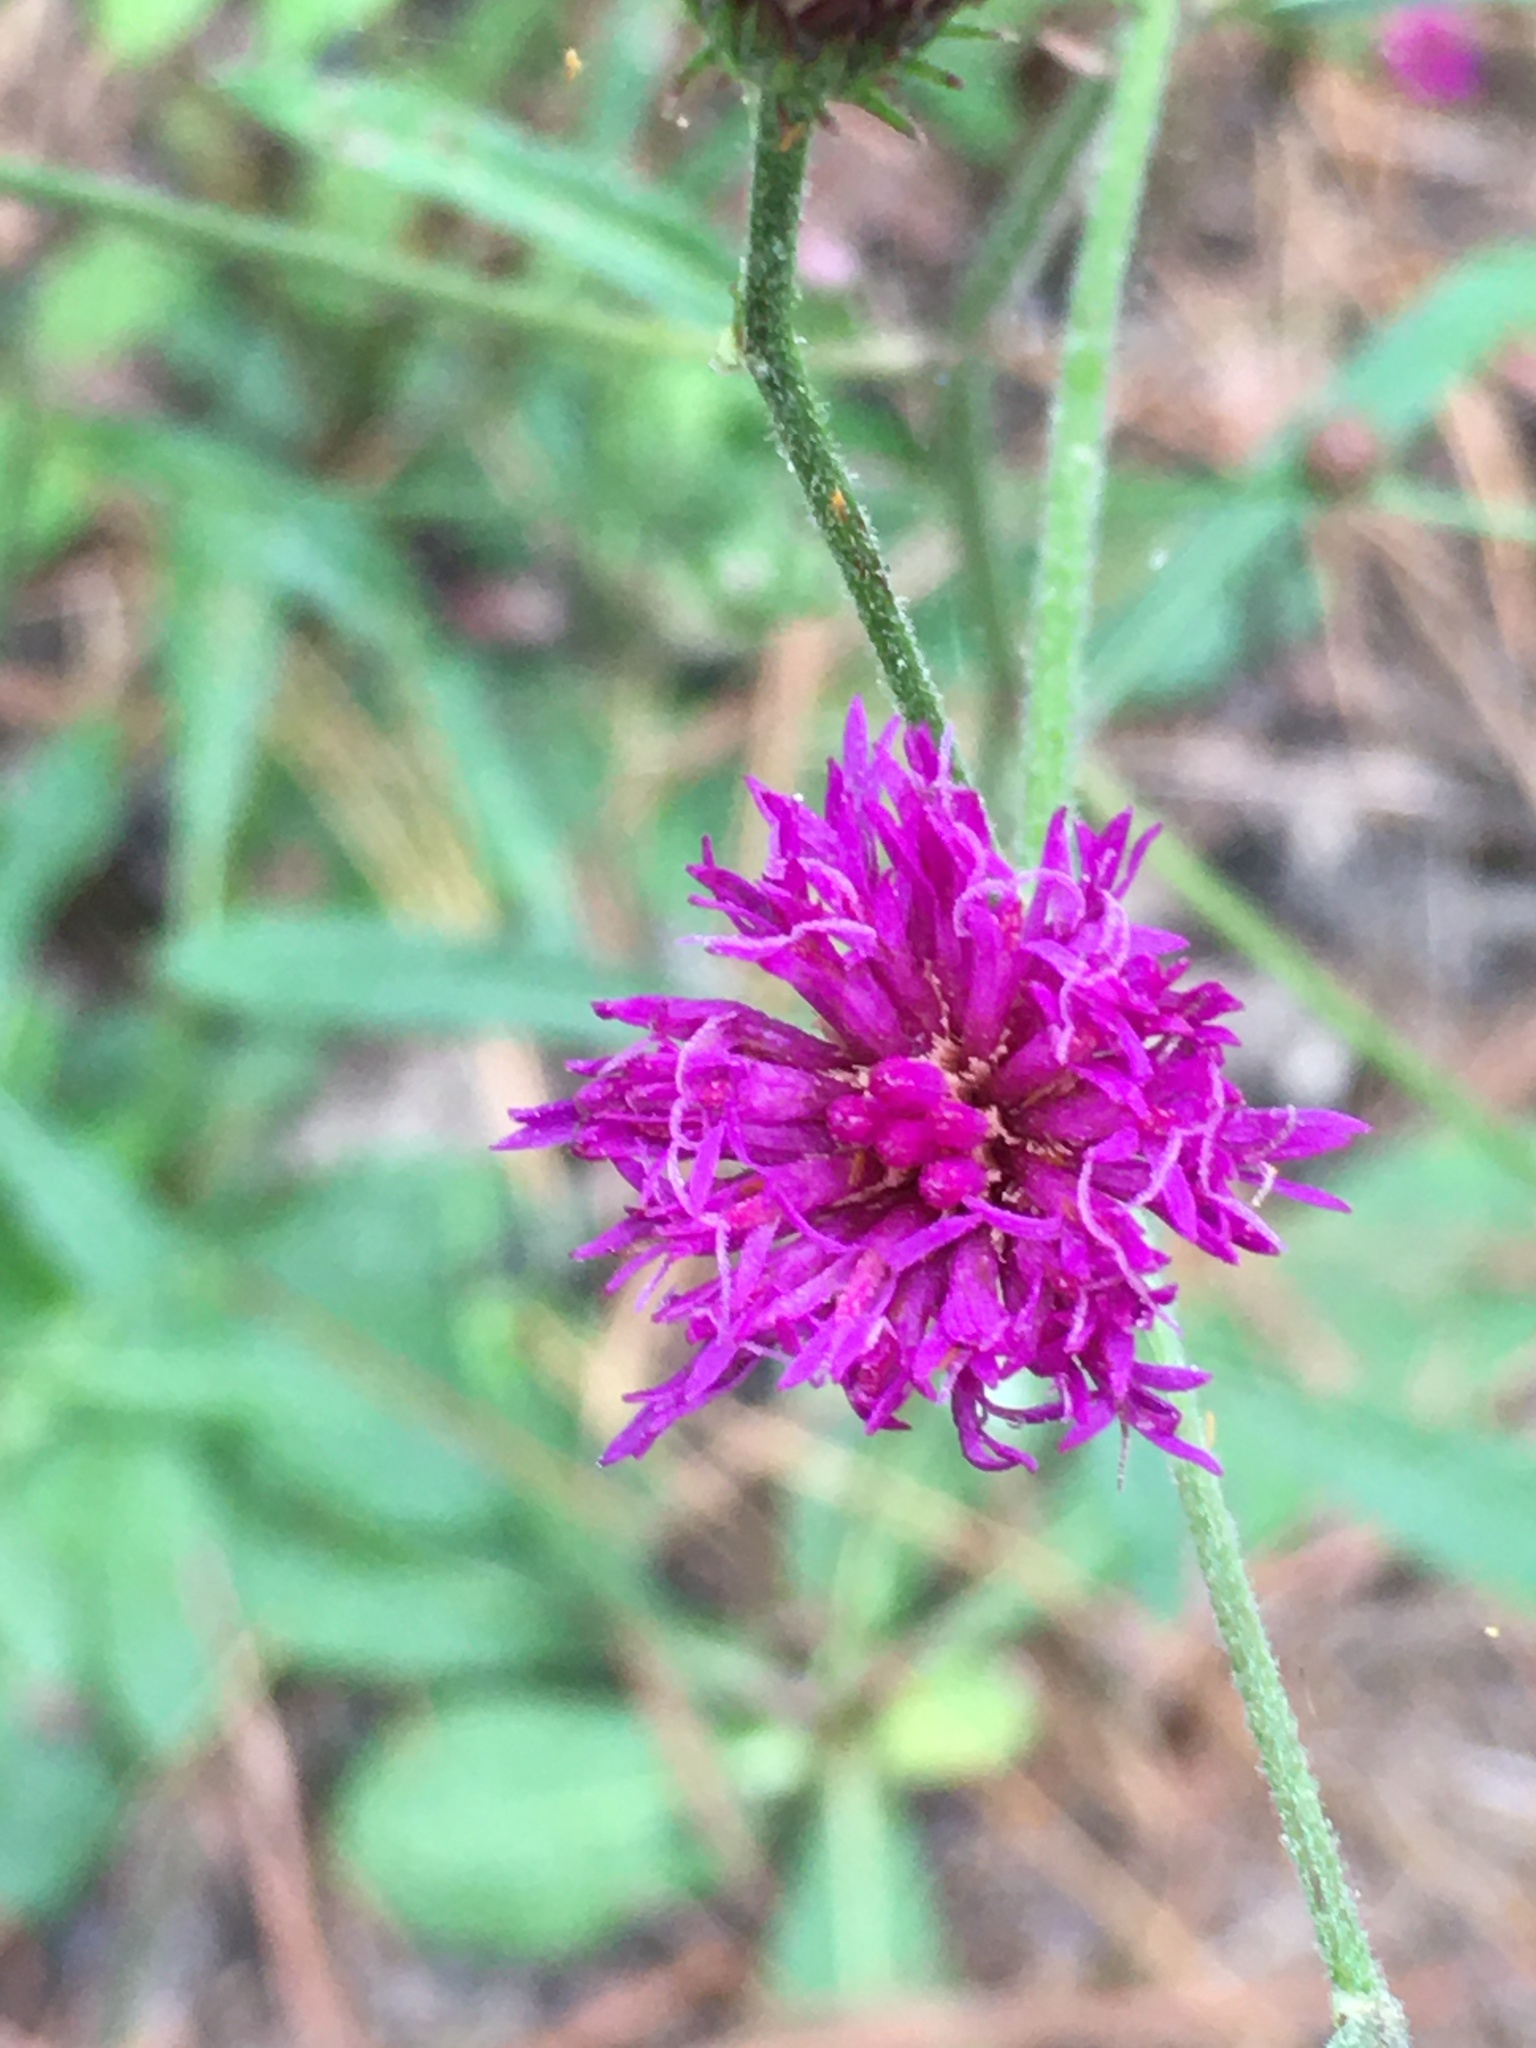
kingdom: Plantae
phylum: Tracheophyta
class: Magnoliopsida
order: Asterales
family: Asteraceae
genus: Vernonia
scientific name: Vernonia acaulis
